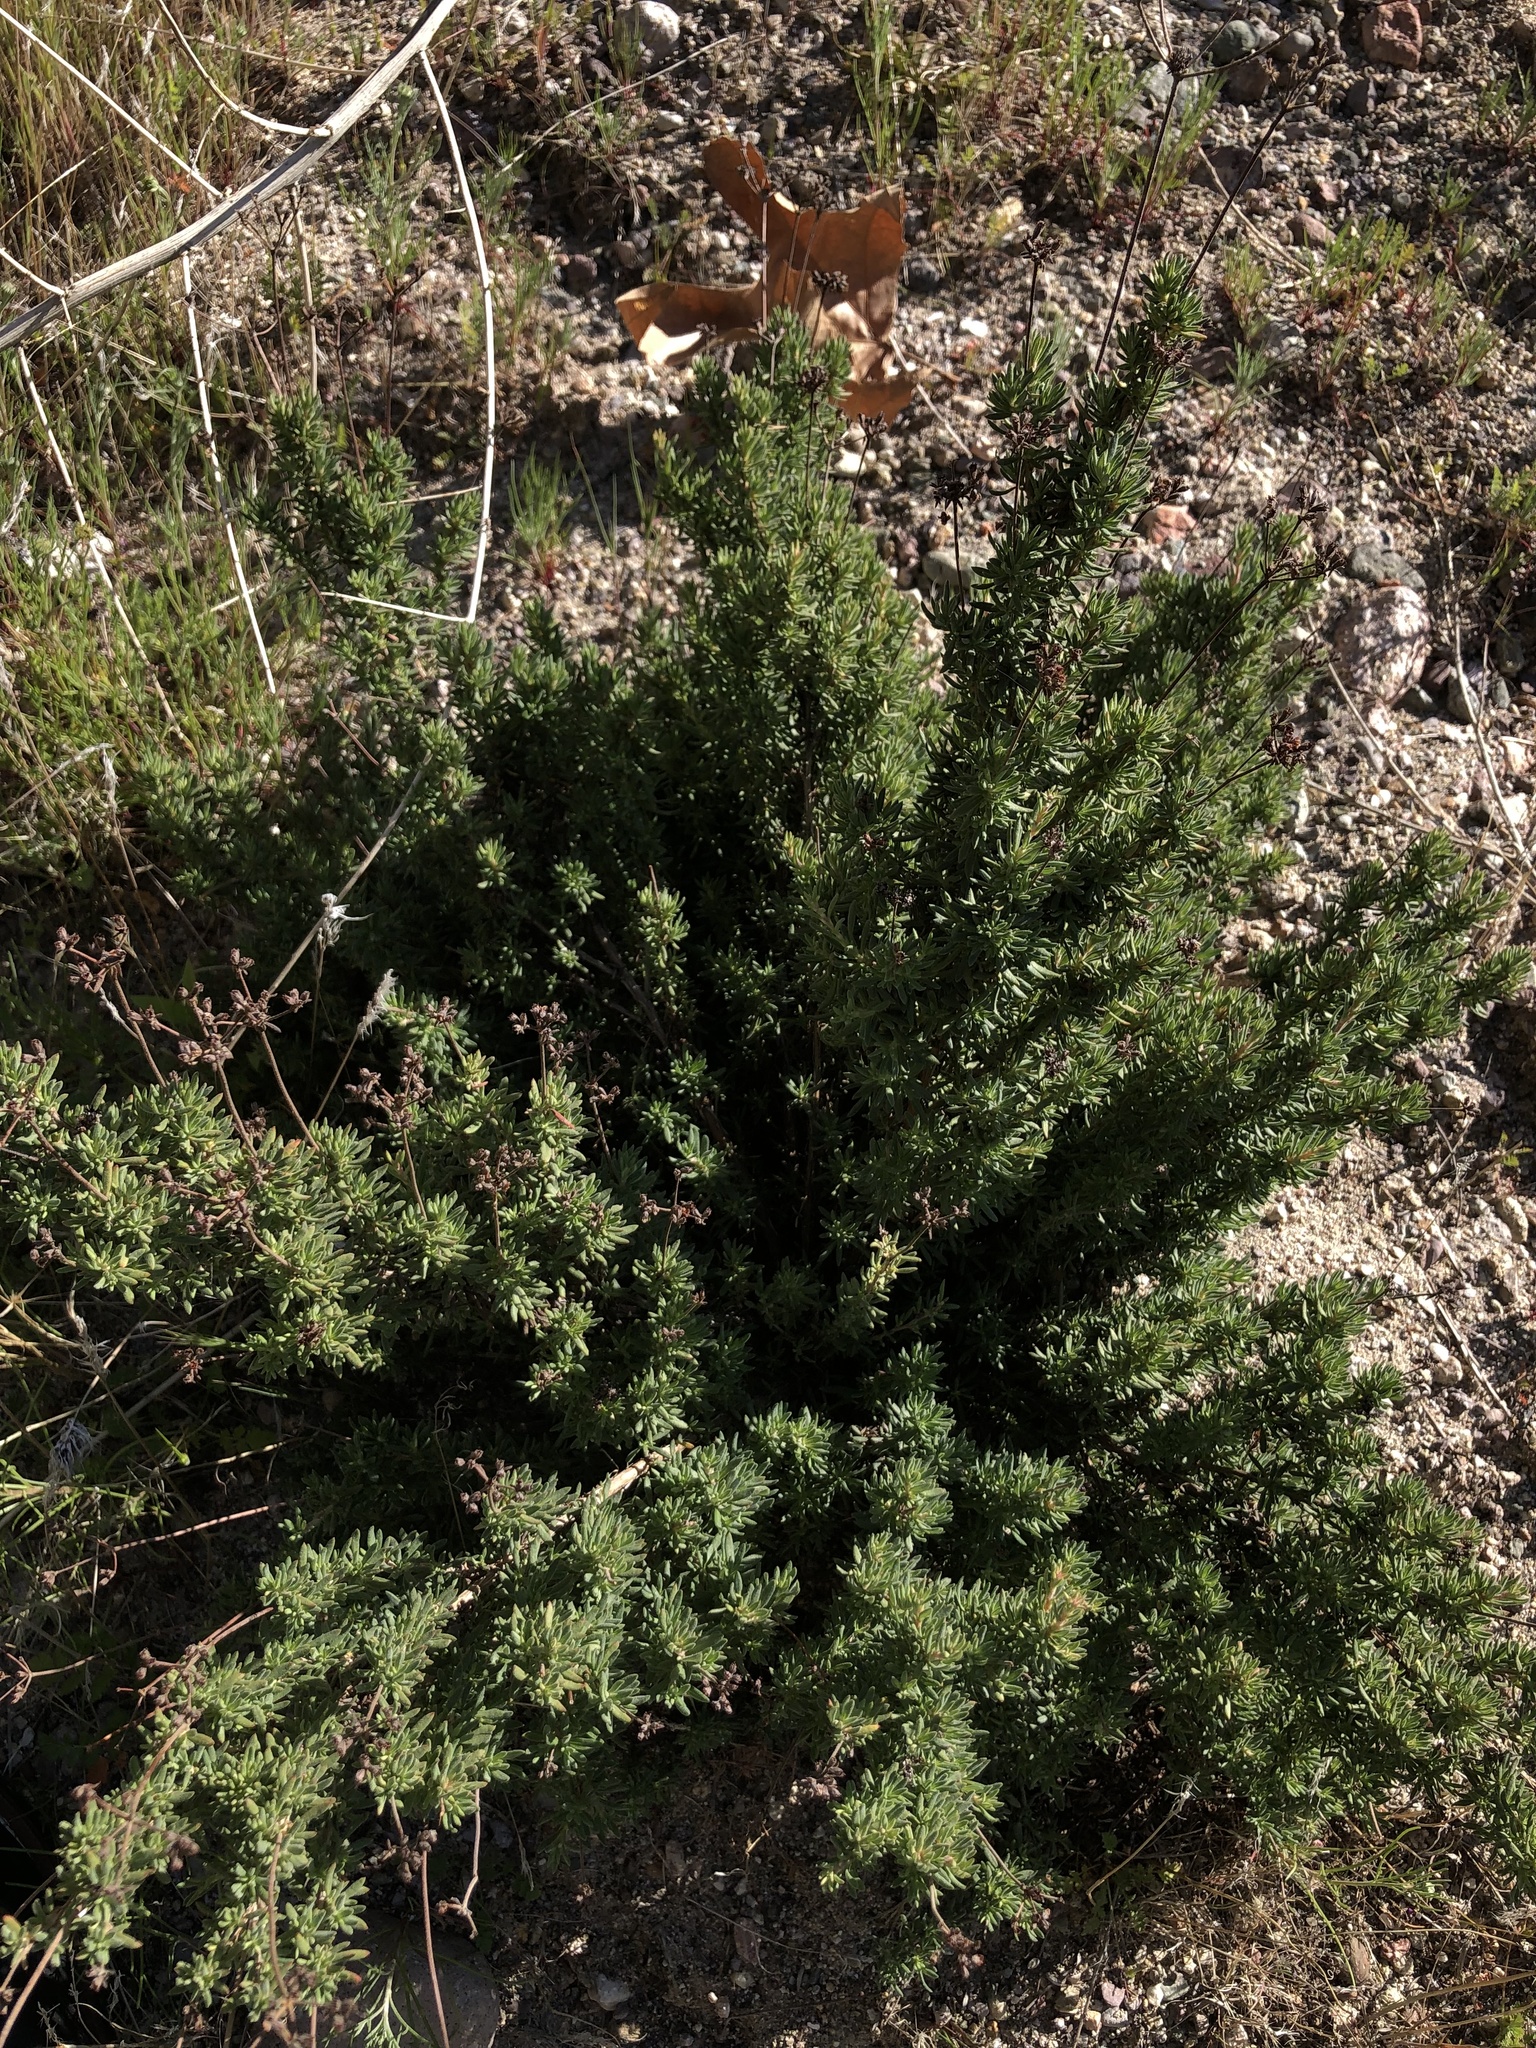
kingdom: Plantae
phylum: Tracheophyta
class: Magnoliopsida
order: Caryophyllales
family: Polygonaceae
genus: Eriogonum
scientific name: Eriogonum fasciculatum
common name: California wild buckwheat
